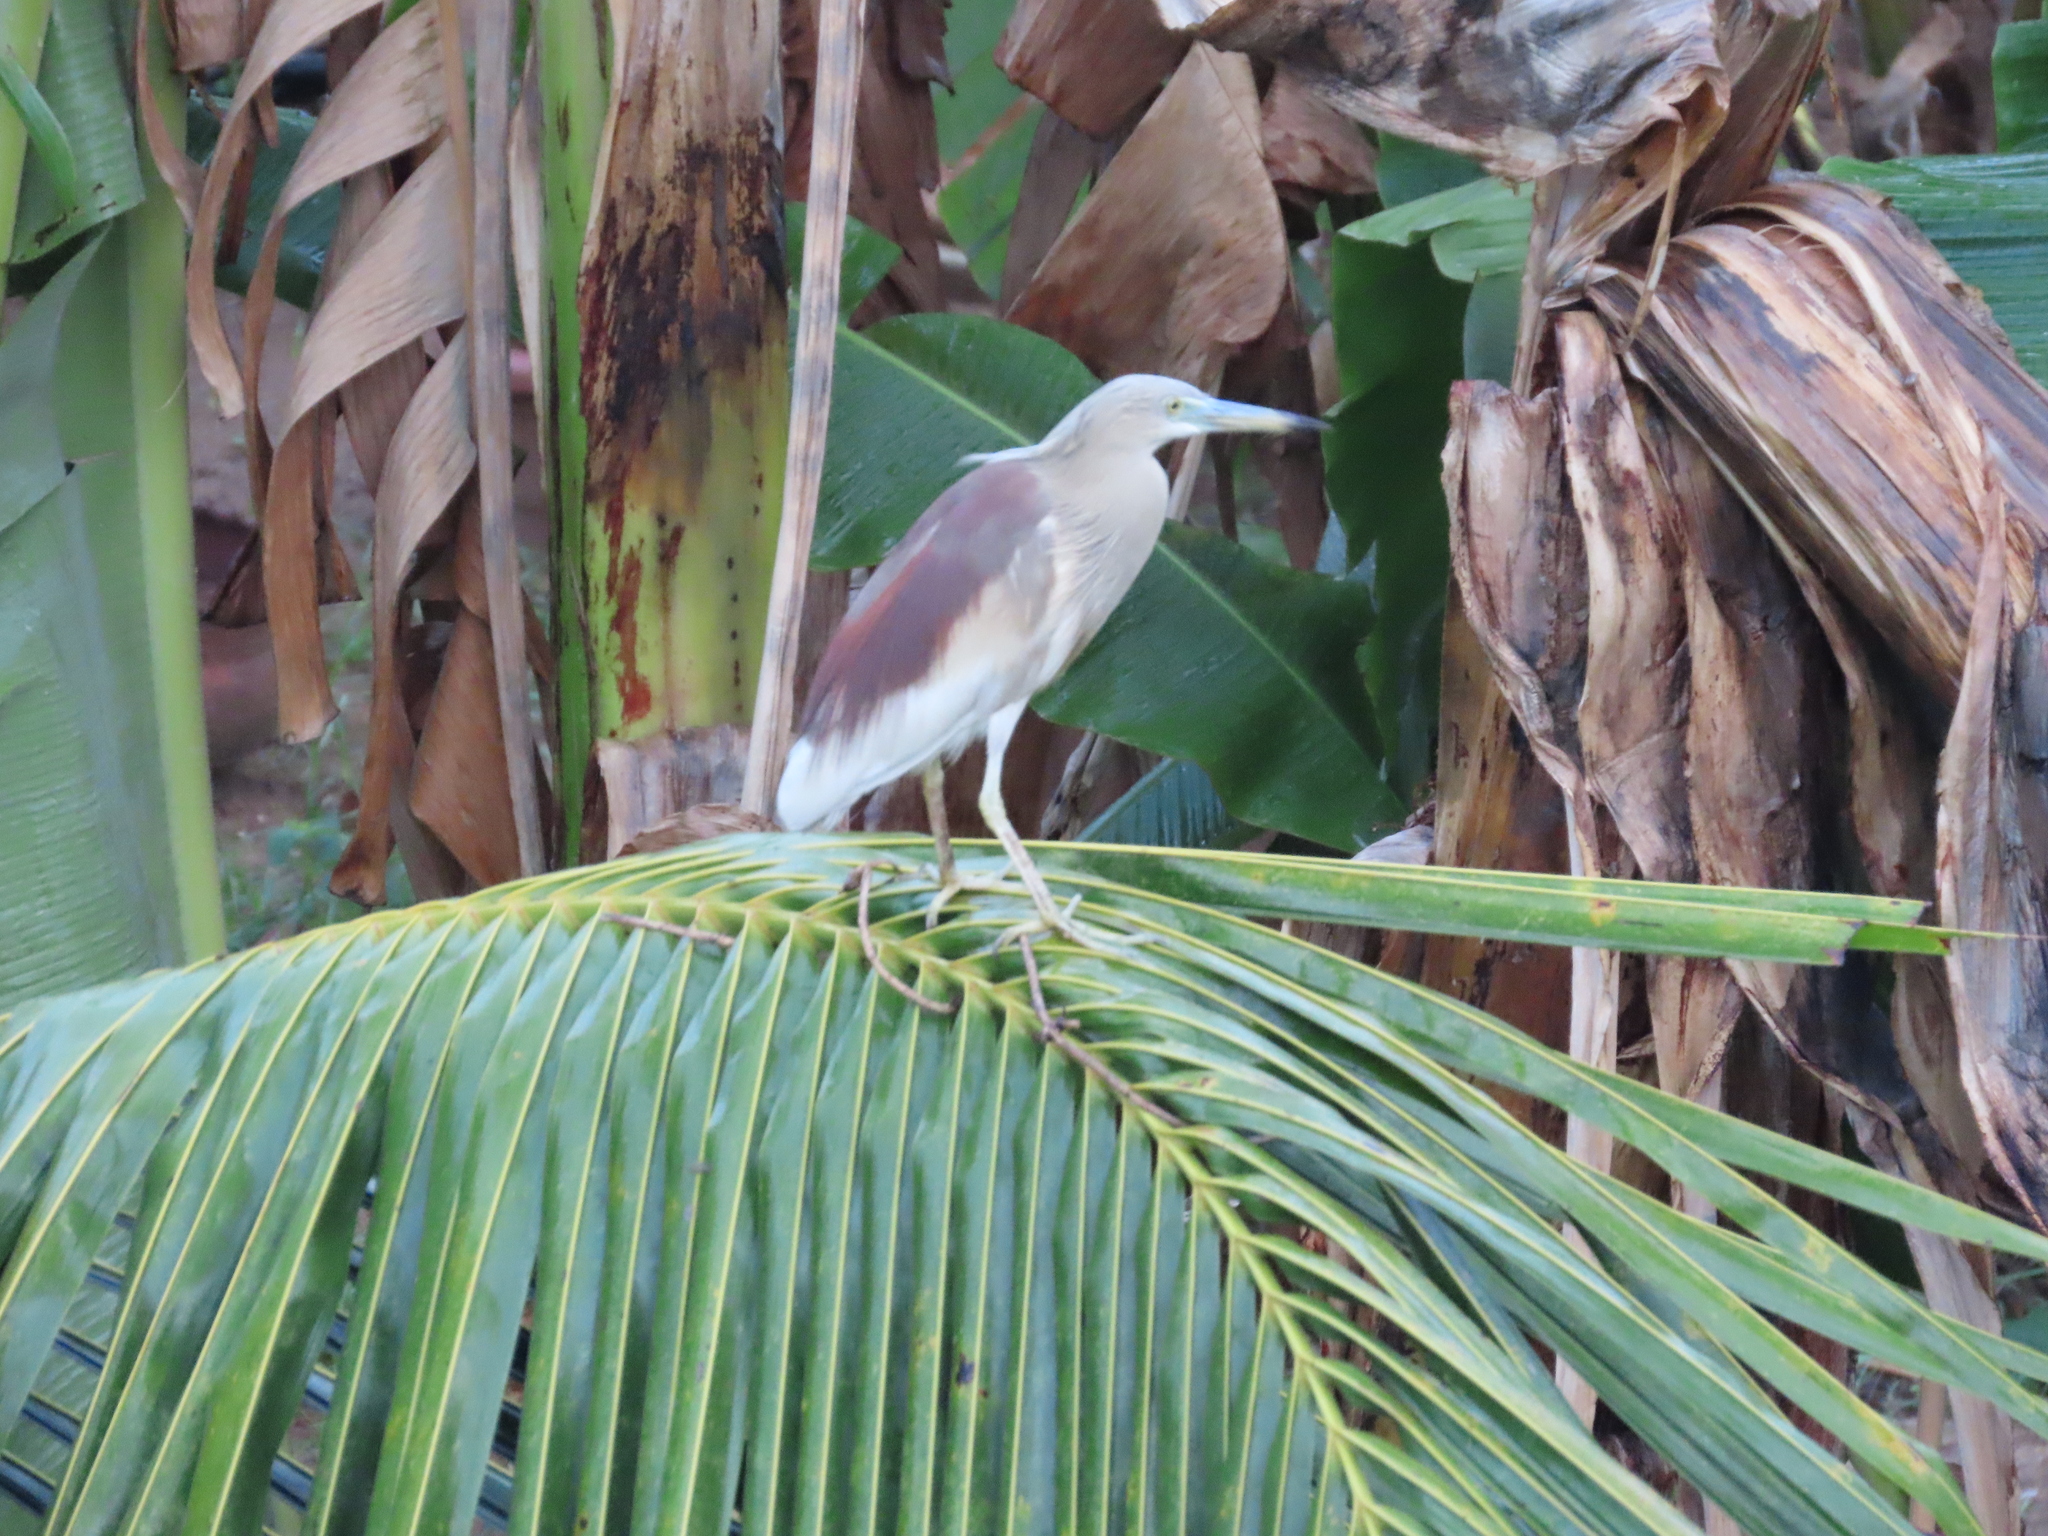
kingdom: Animalia
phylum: Chordata
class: Aves
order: Pelecaniformes
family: Ardeidae
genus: Ardeola
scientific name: Ardeola grayii
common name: Indian pond heron
